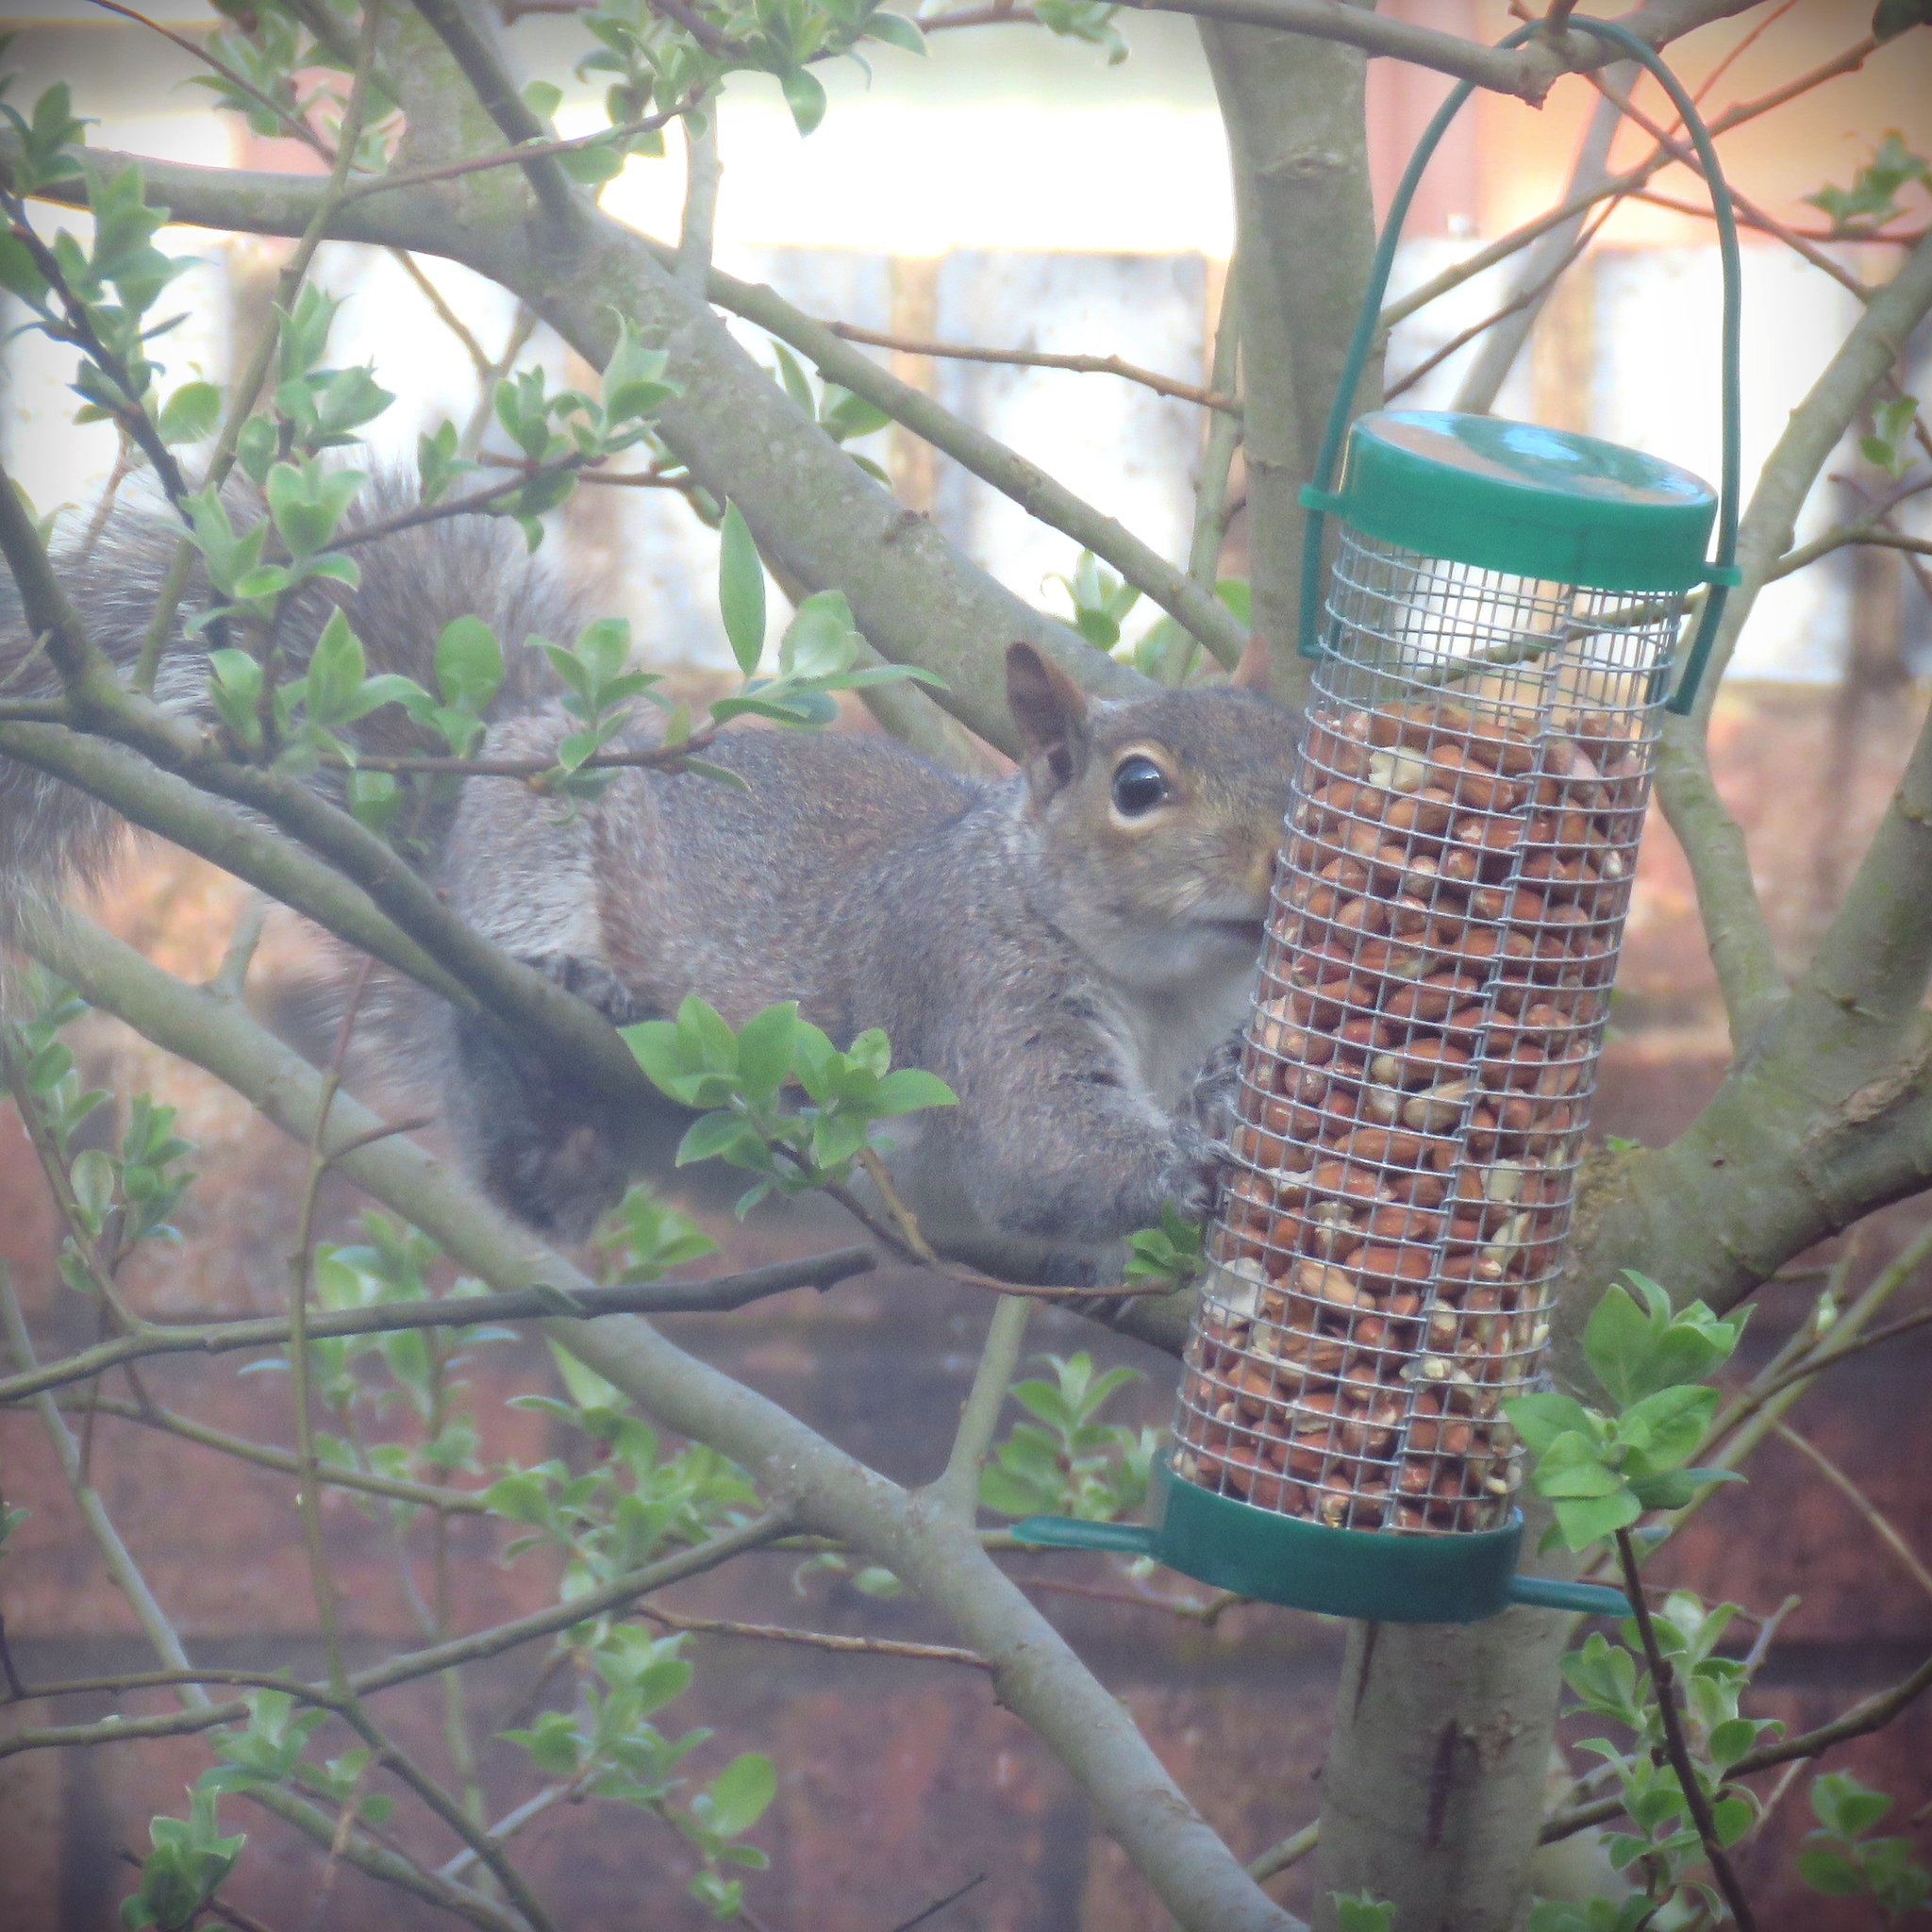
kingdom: Animalia
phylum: Chordata
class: Mammalia
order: Rodentia
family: Sciuridae
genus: Sciurus
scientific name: Sciurus carolinensis
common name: Eastern gray squirrel
